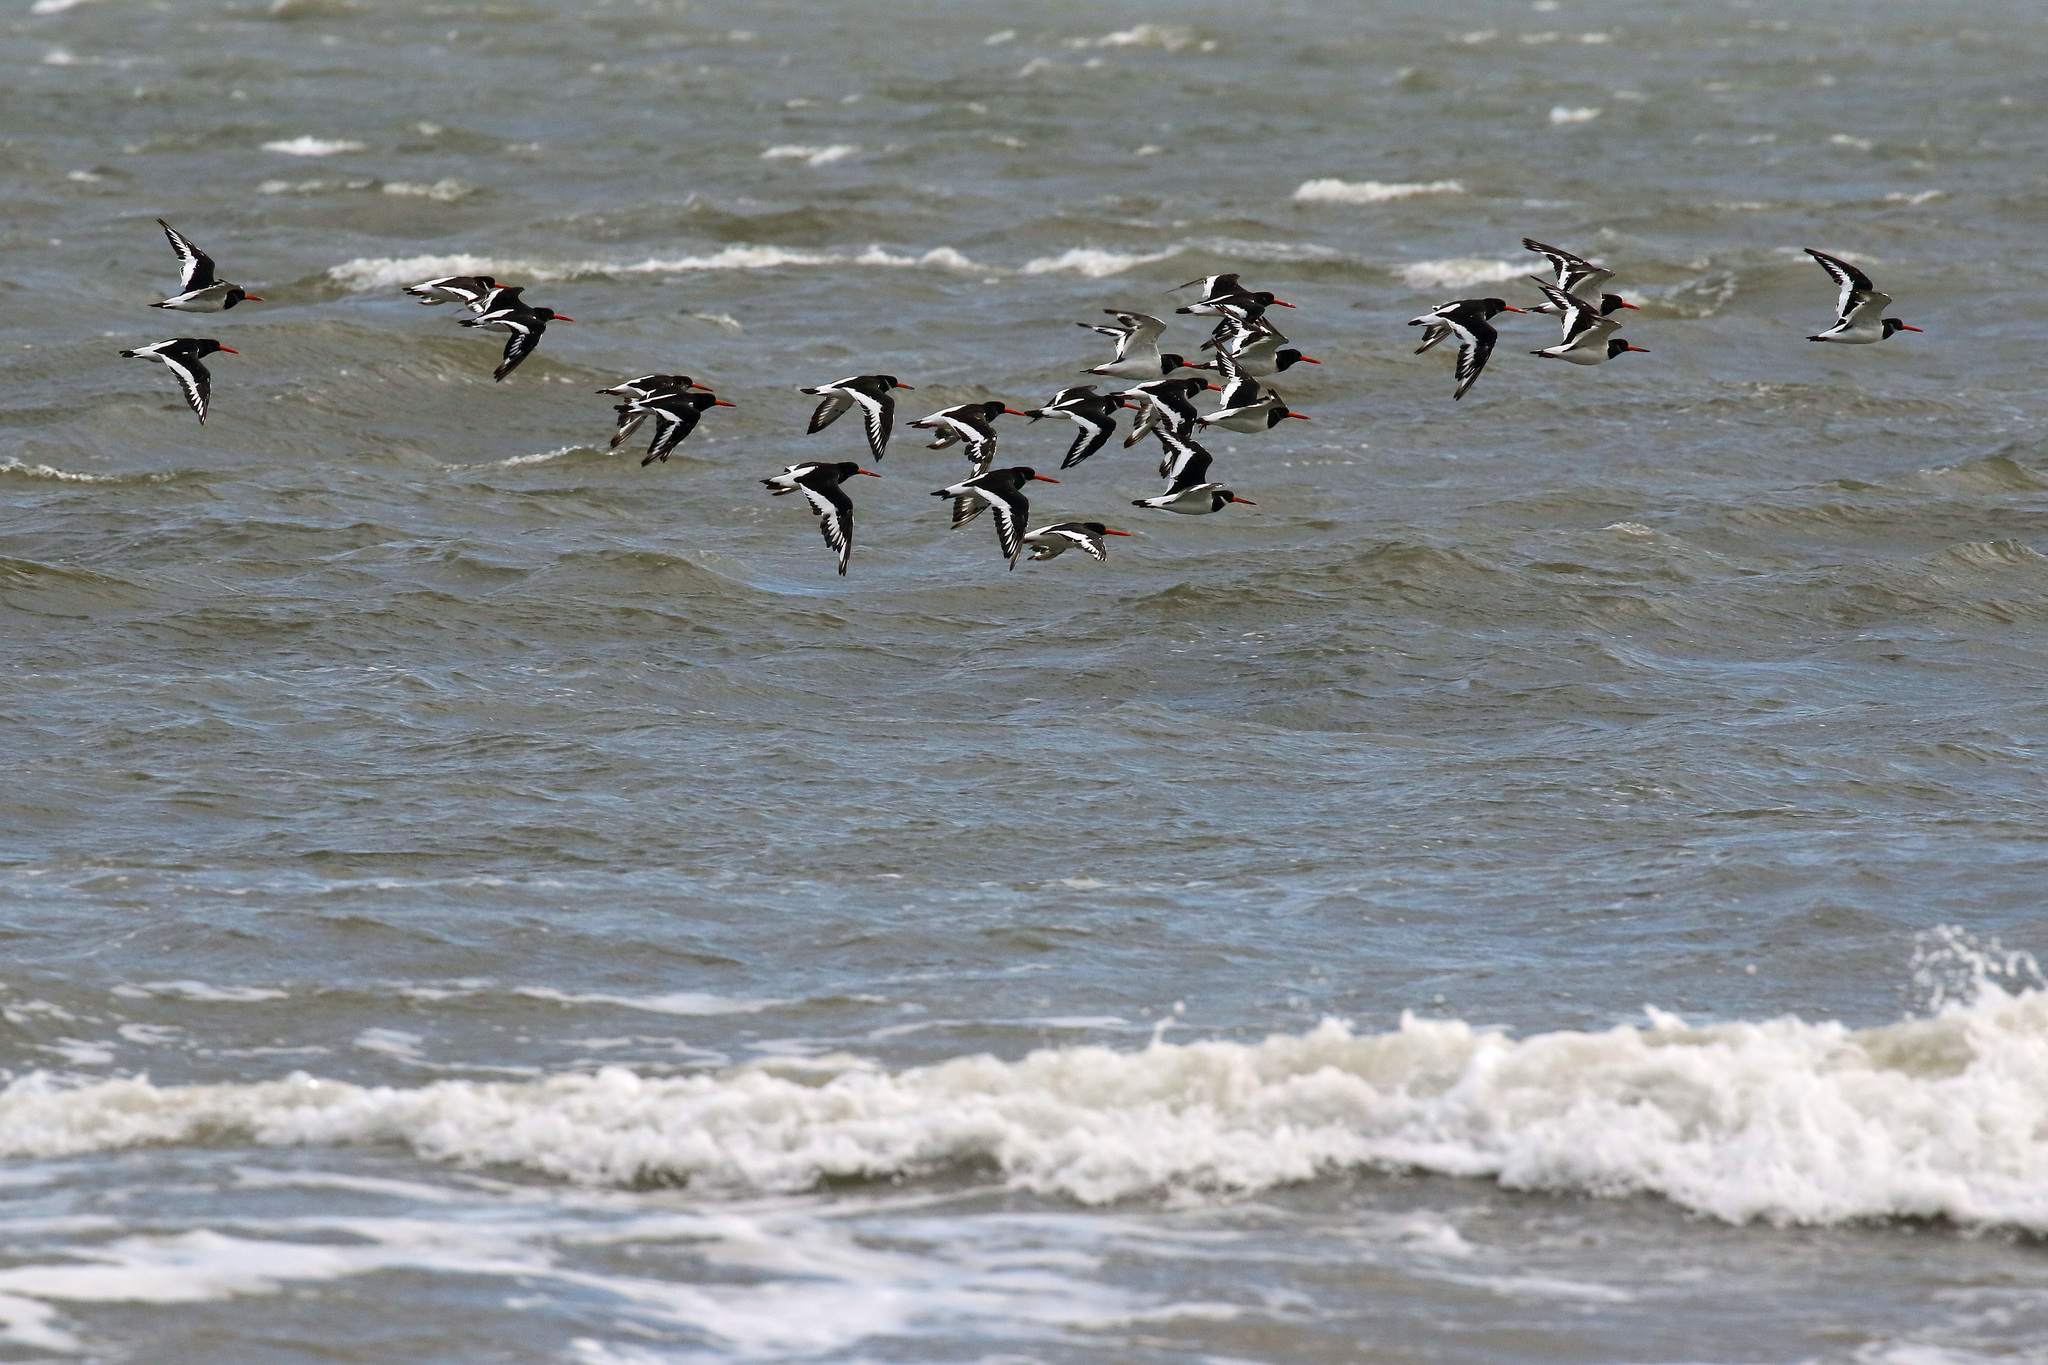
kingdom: Animalia
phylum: Chordata
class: Aves
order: Charadriiformes
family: Haematopodidae
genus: Haematopus
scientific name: Haematopus ostralegus
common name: Eurasian oystercatcher
